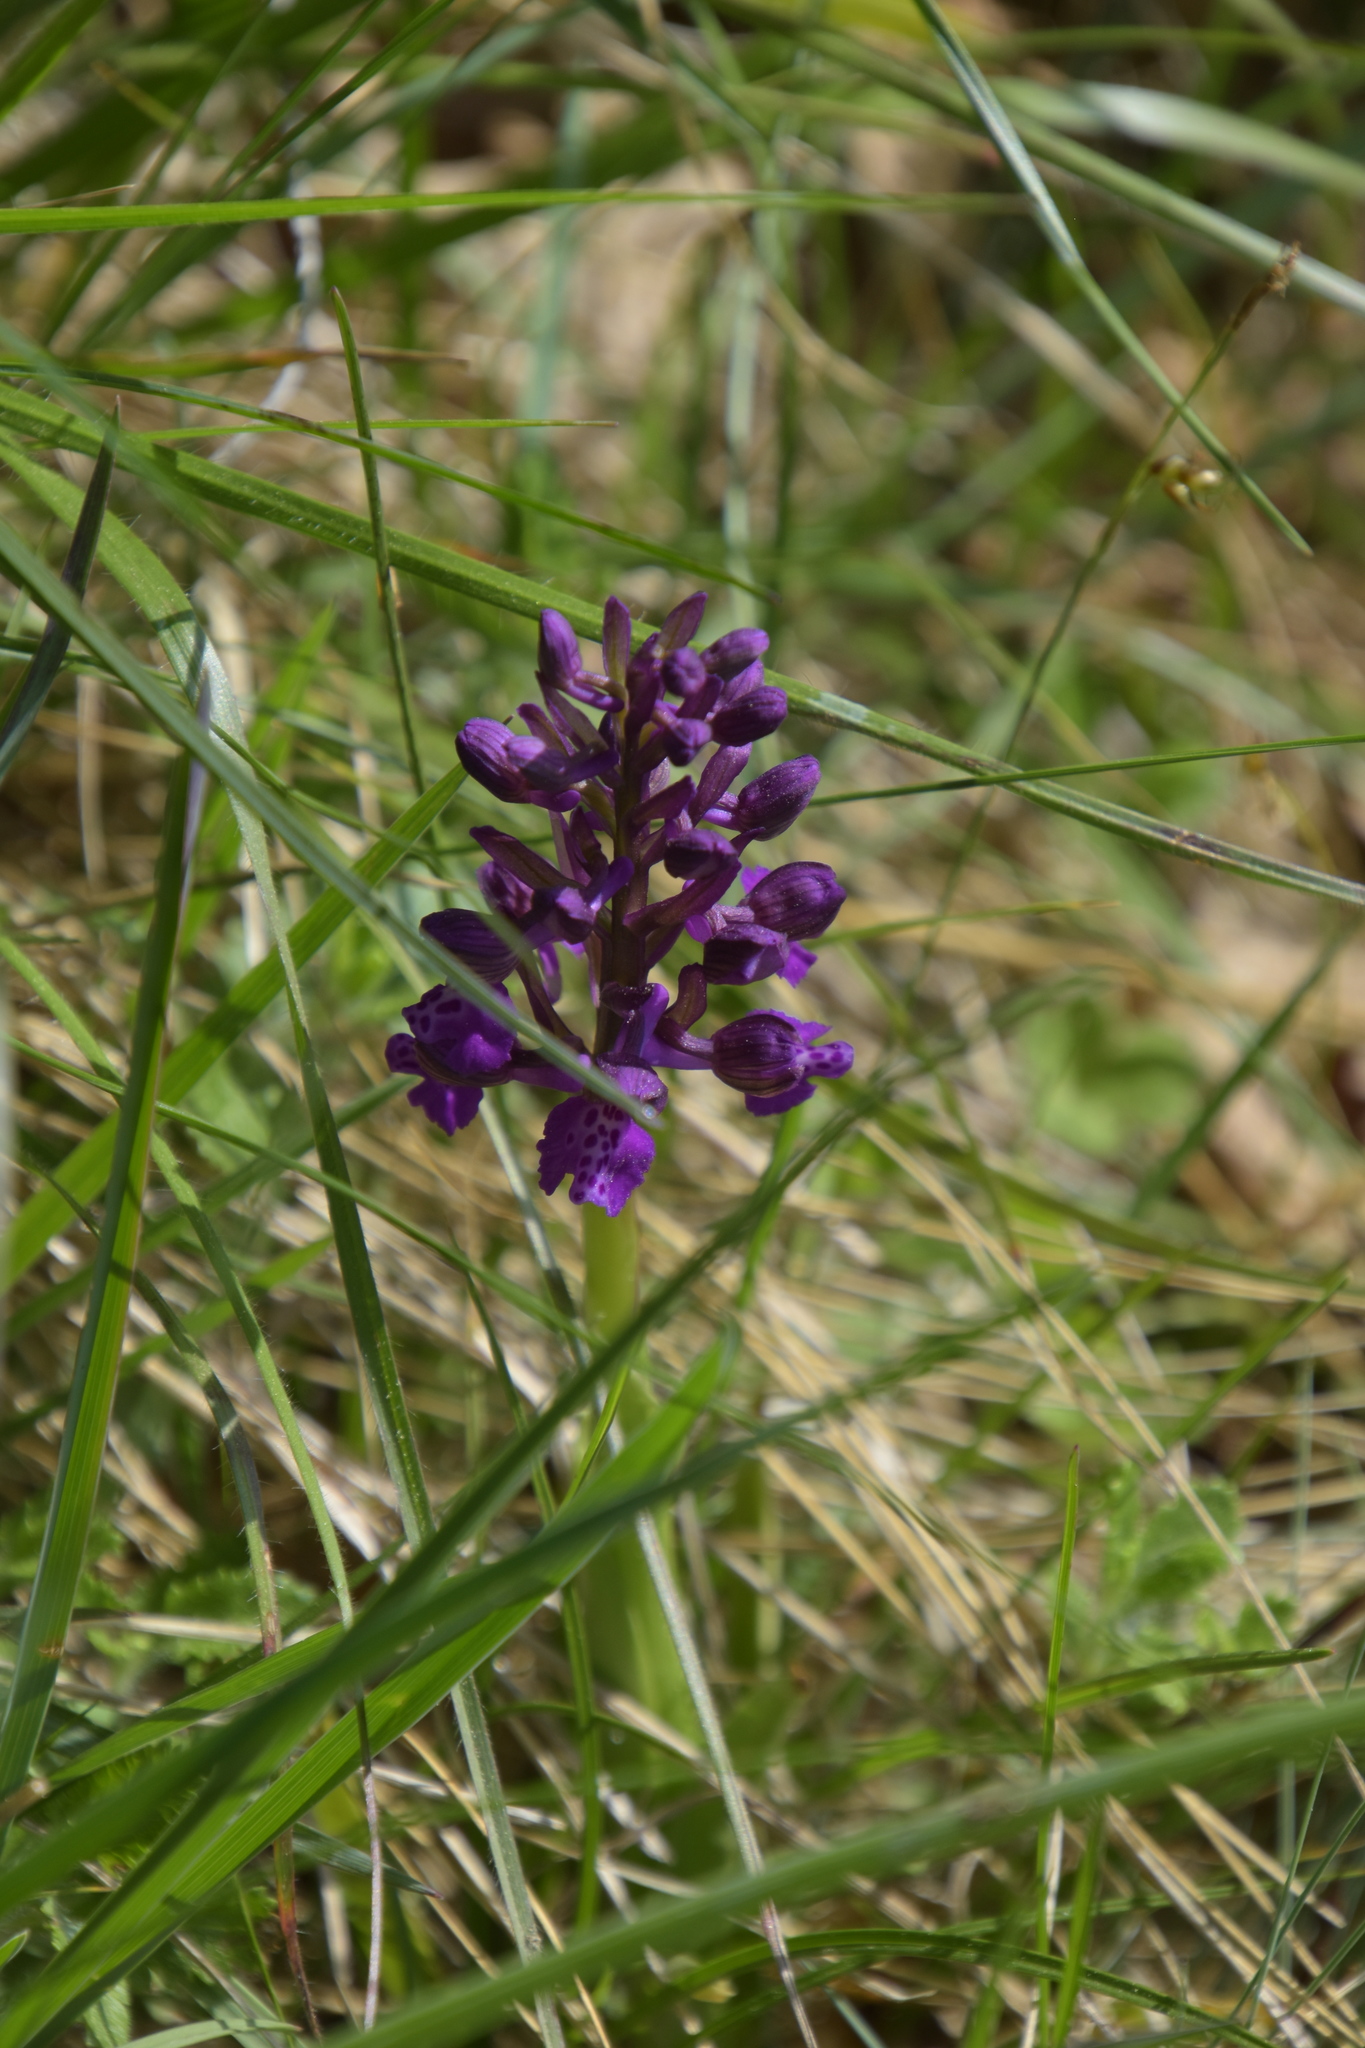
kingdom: Plantae
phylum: Tracheophyta
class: Liliopsida
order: Asparagales
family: Orchidaceae
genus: Anacamptis
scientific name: Anacamptis morio
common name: Green-winged orchid
